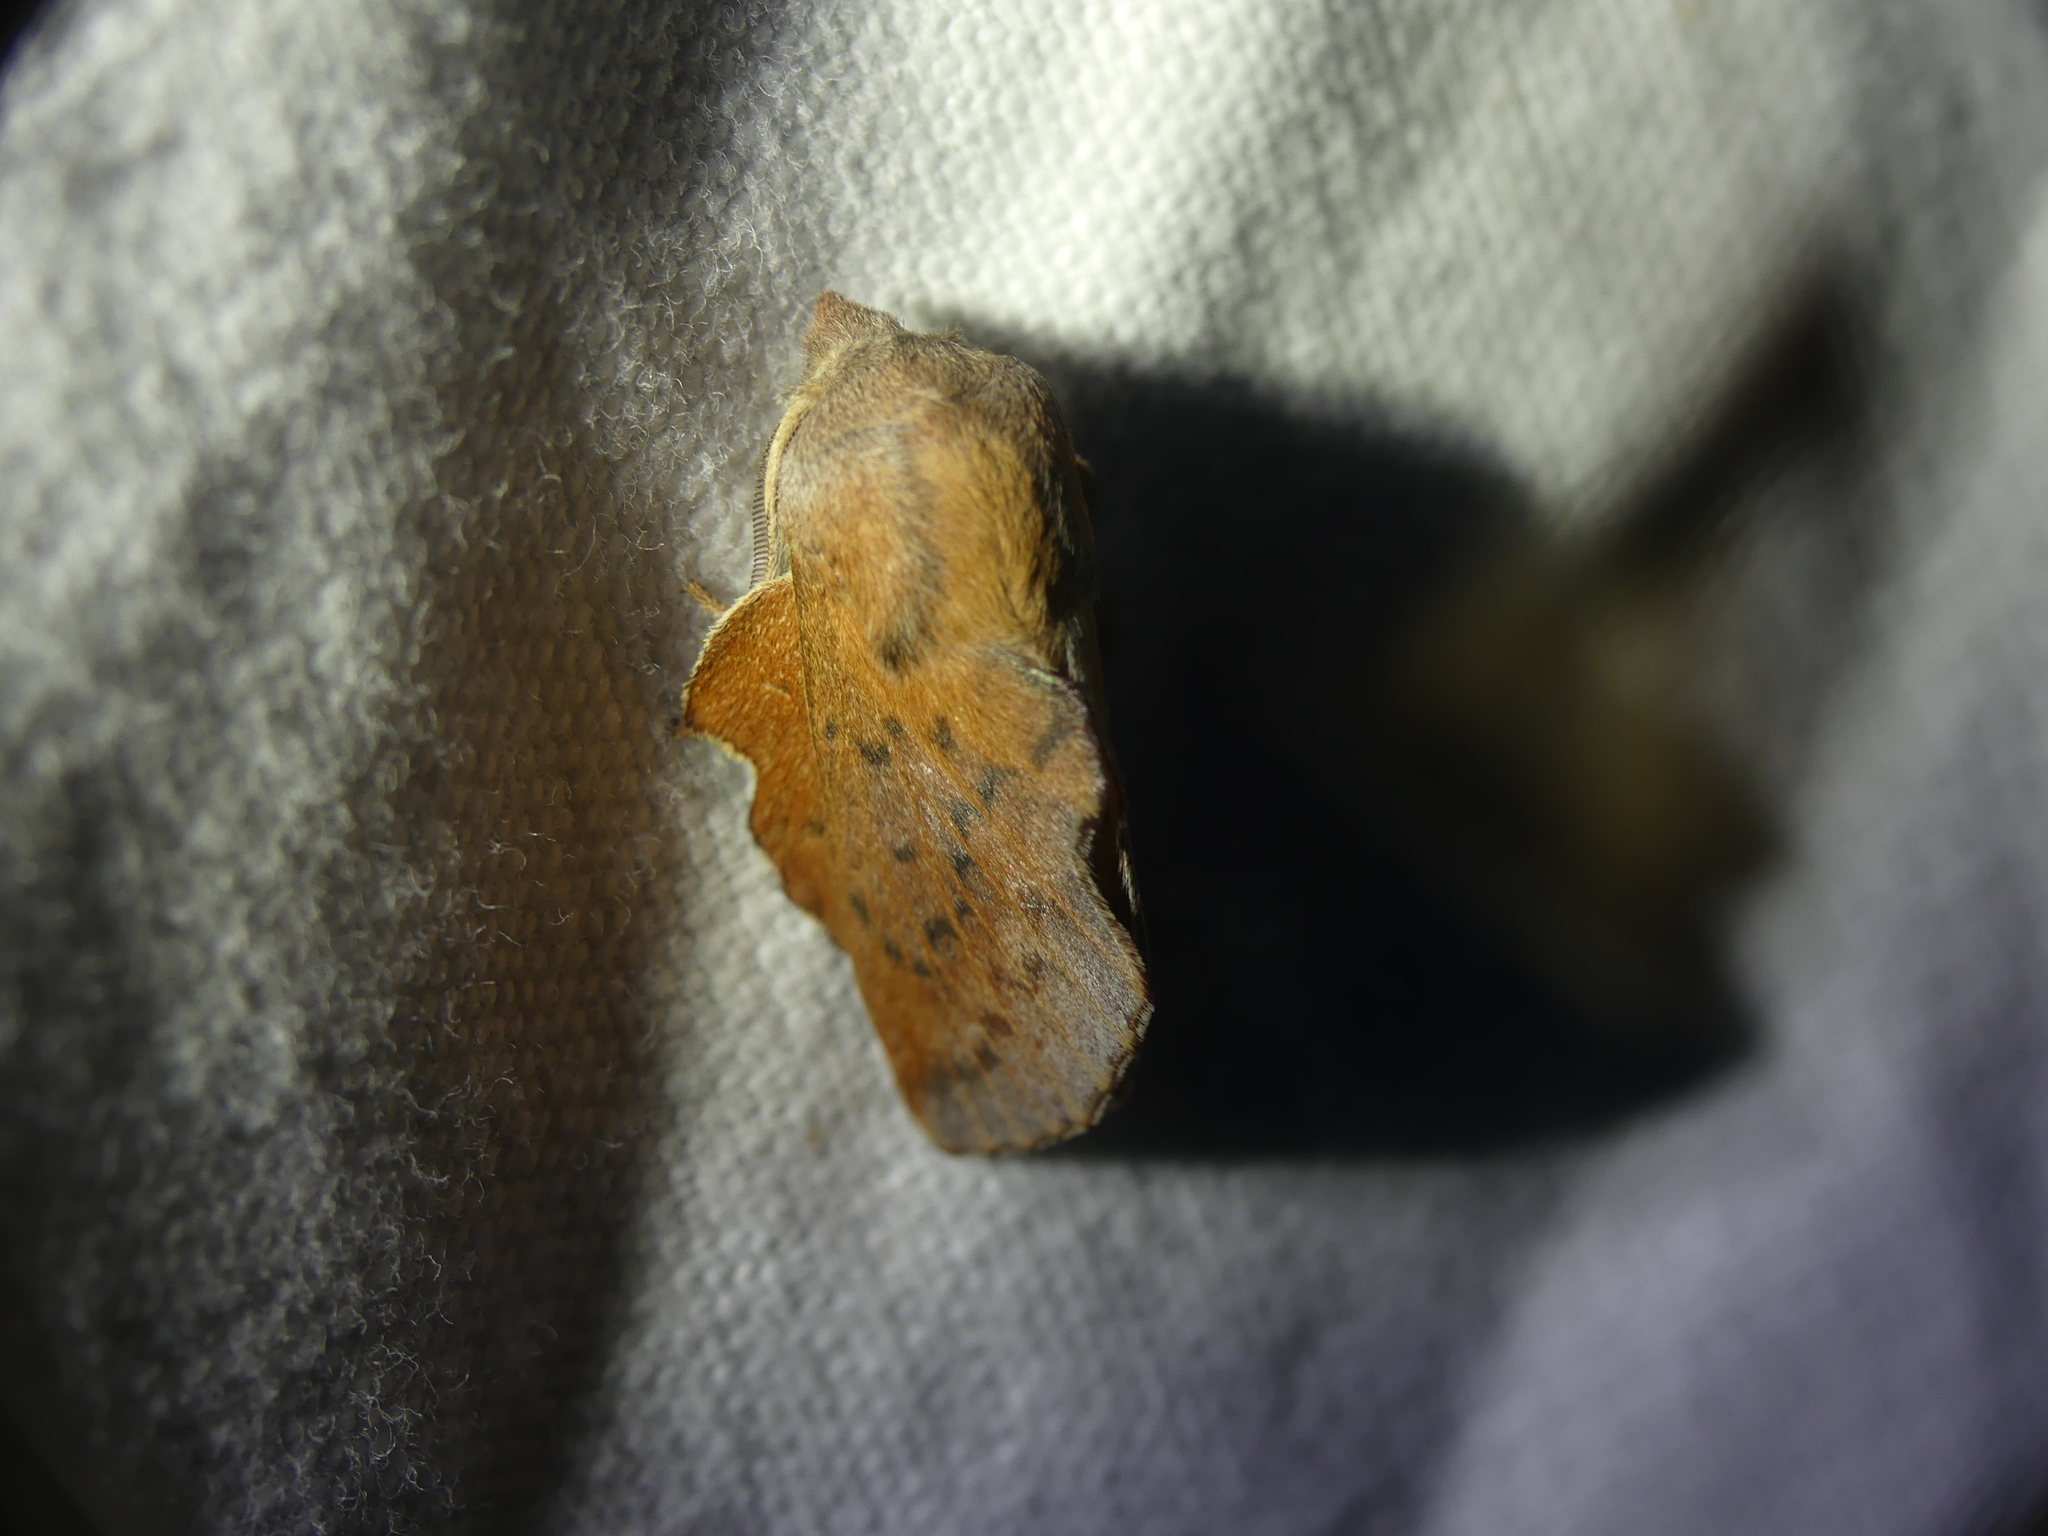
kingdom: Animalia
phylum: Arthropoda
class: Insecta
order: Lepidoptera
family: Lasiocampidae
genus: Phyllodesma
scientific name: Phyllodesma tremulifolia
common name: Aspen lappet
